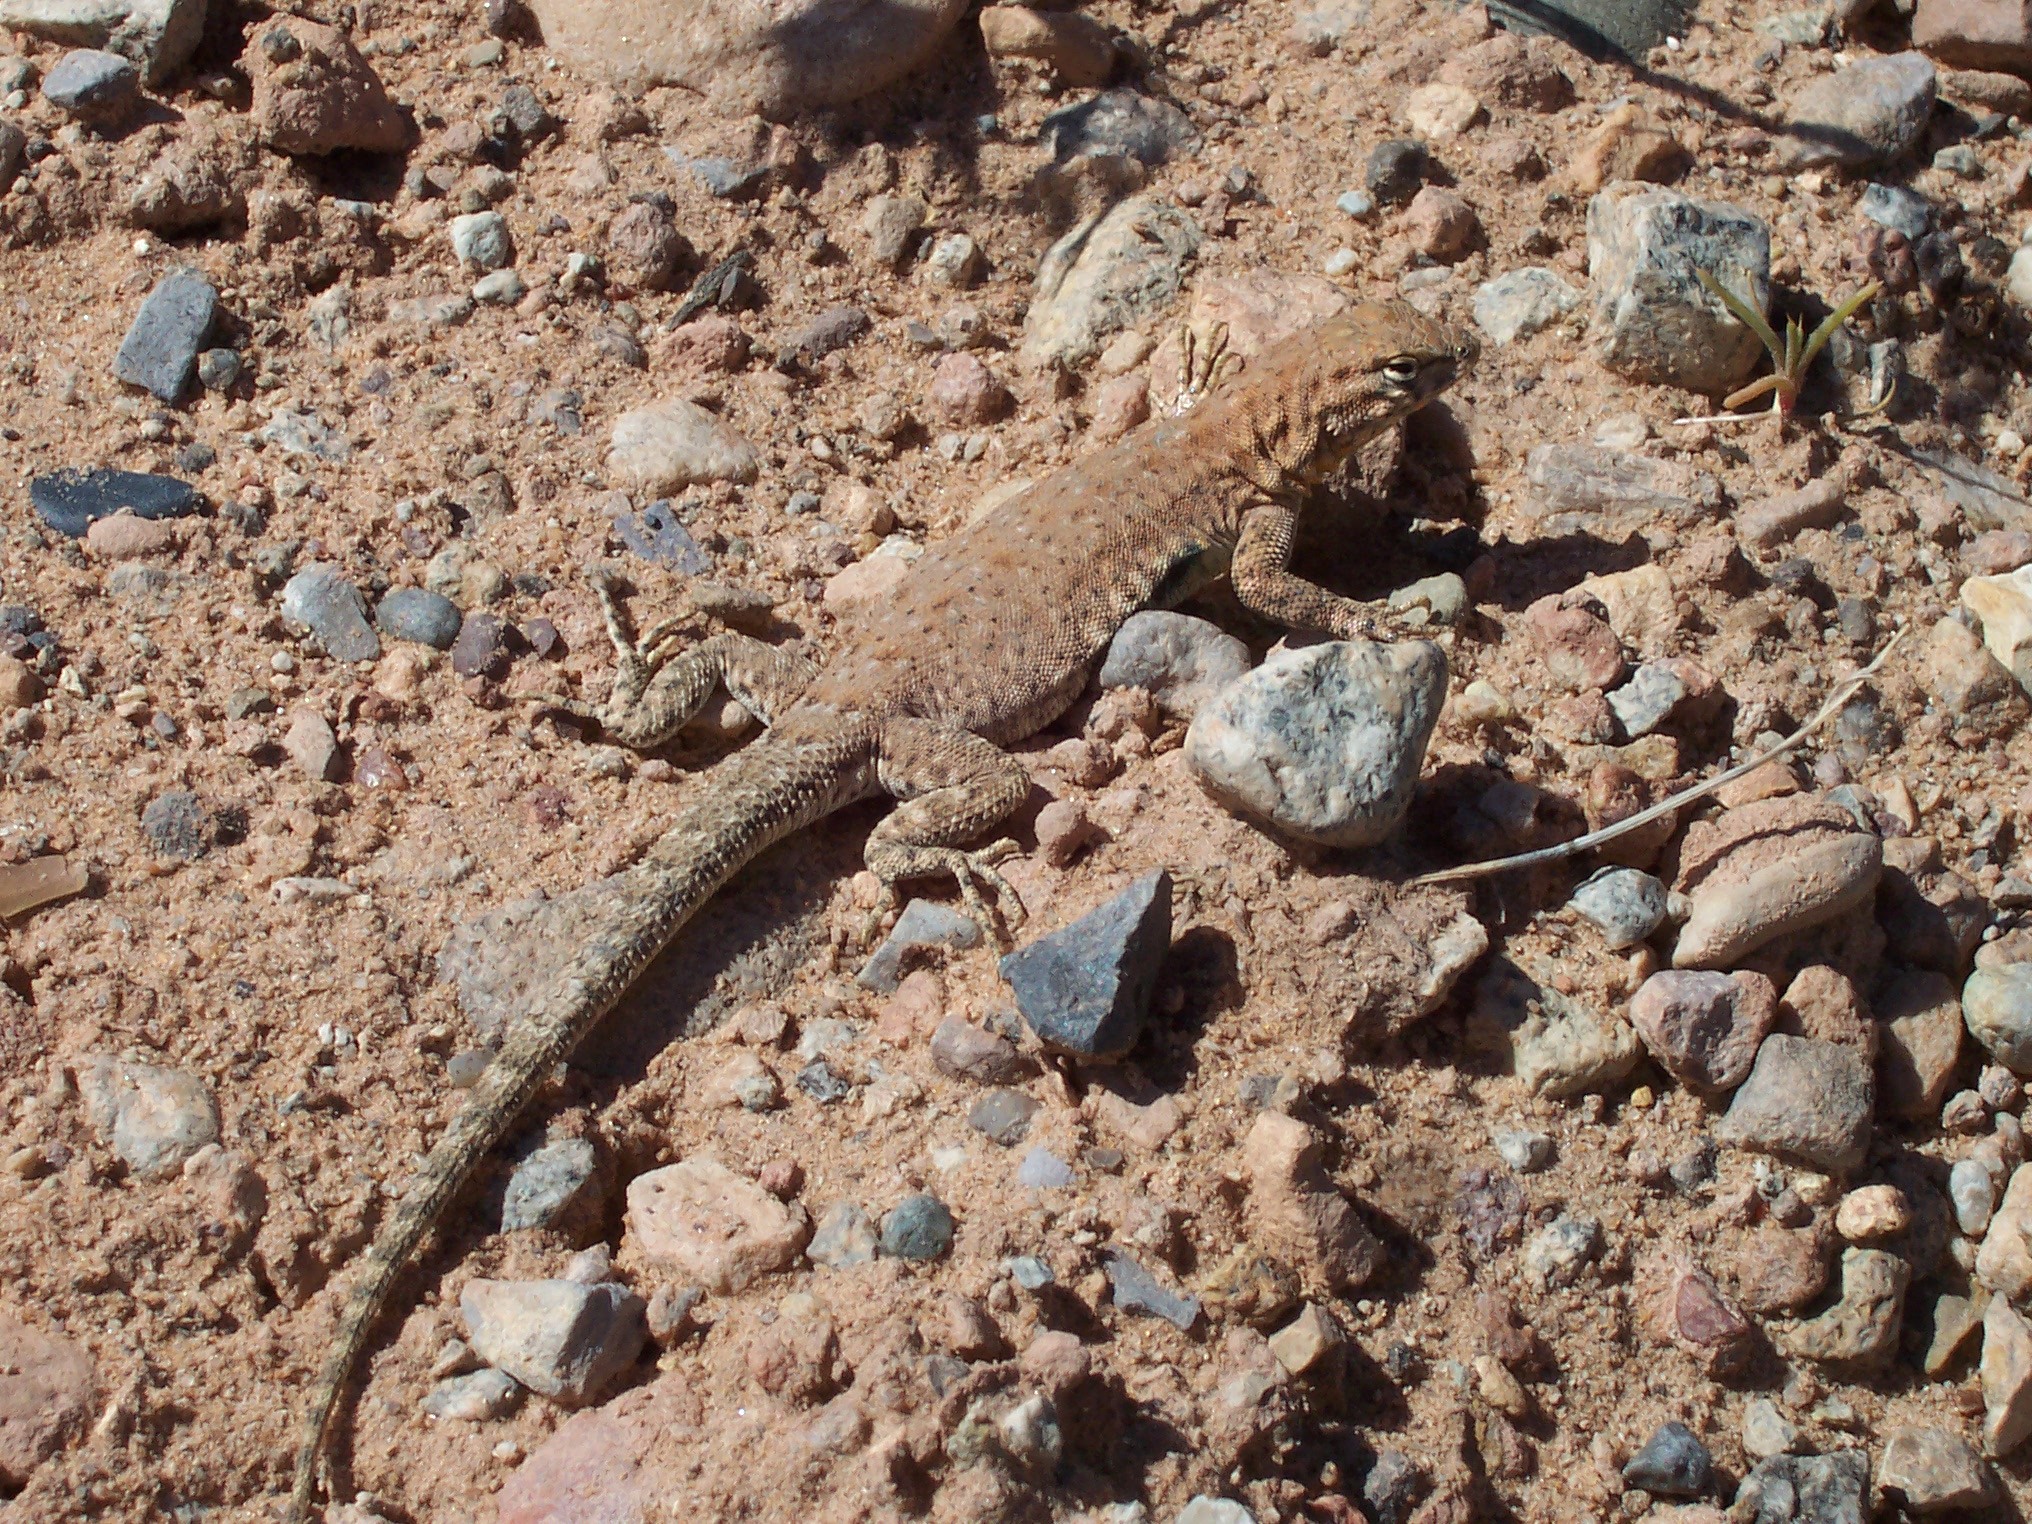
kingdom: Animalia
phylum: Chordata
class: Squamata
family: Phrynosomatidae
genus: Uta
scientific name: Uta stansburiana
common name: Side-blotched lizard
